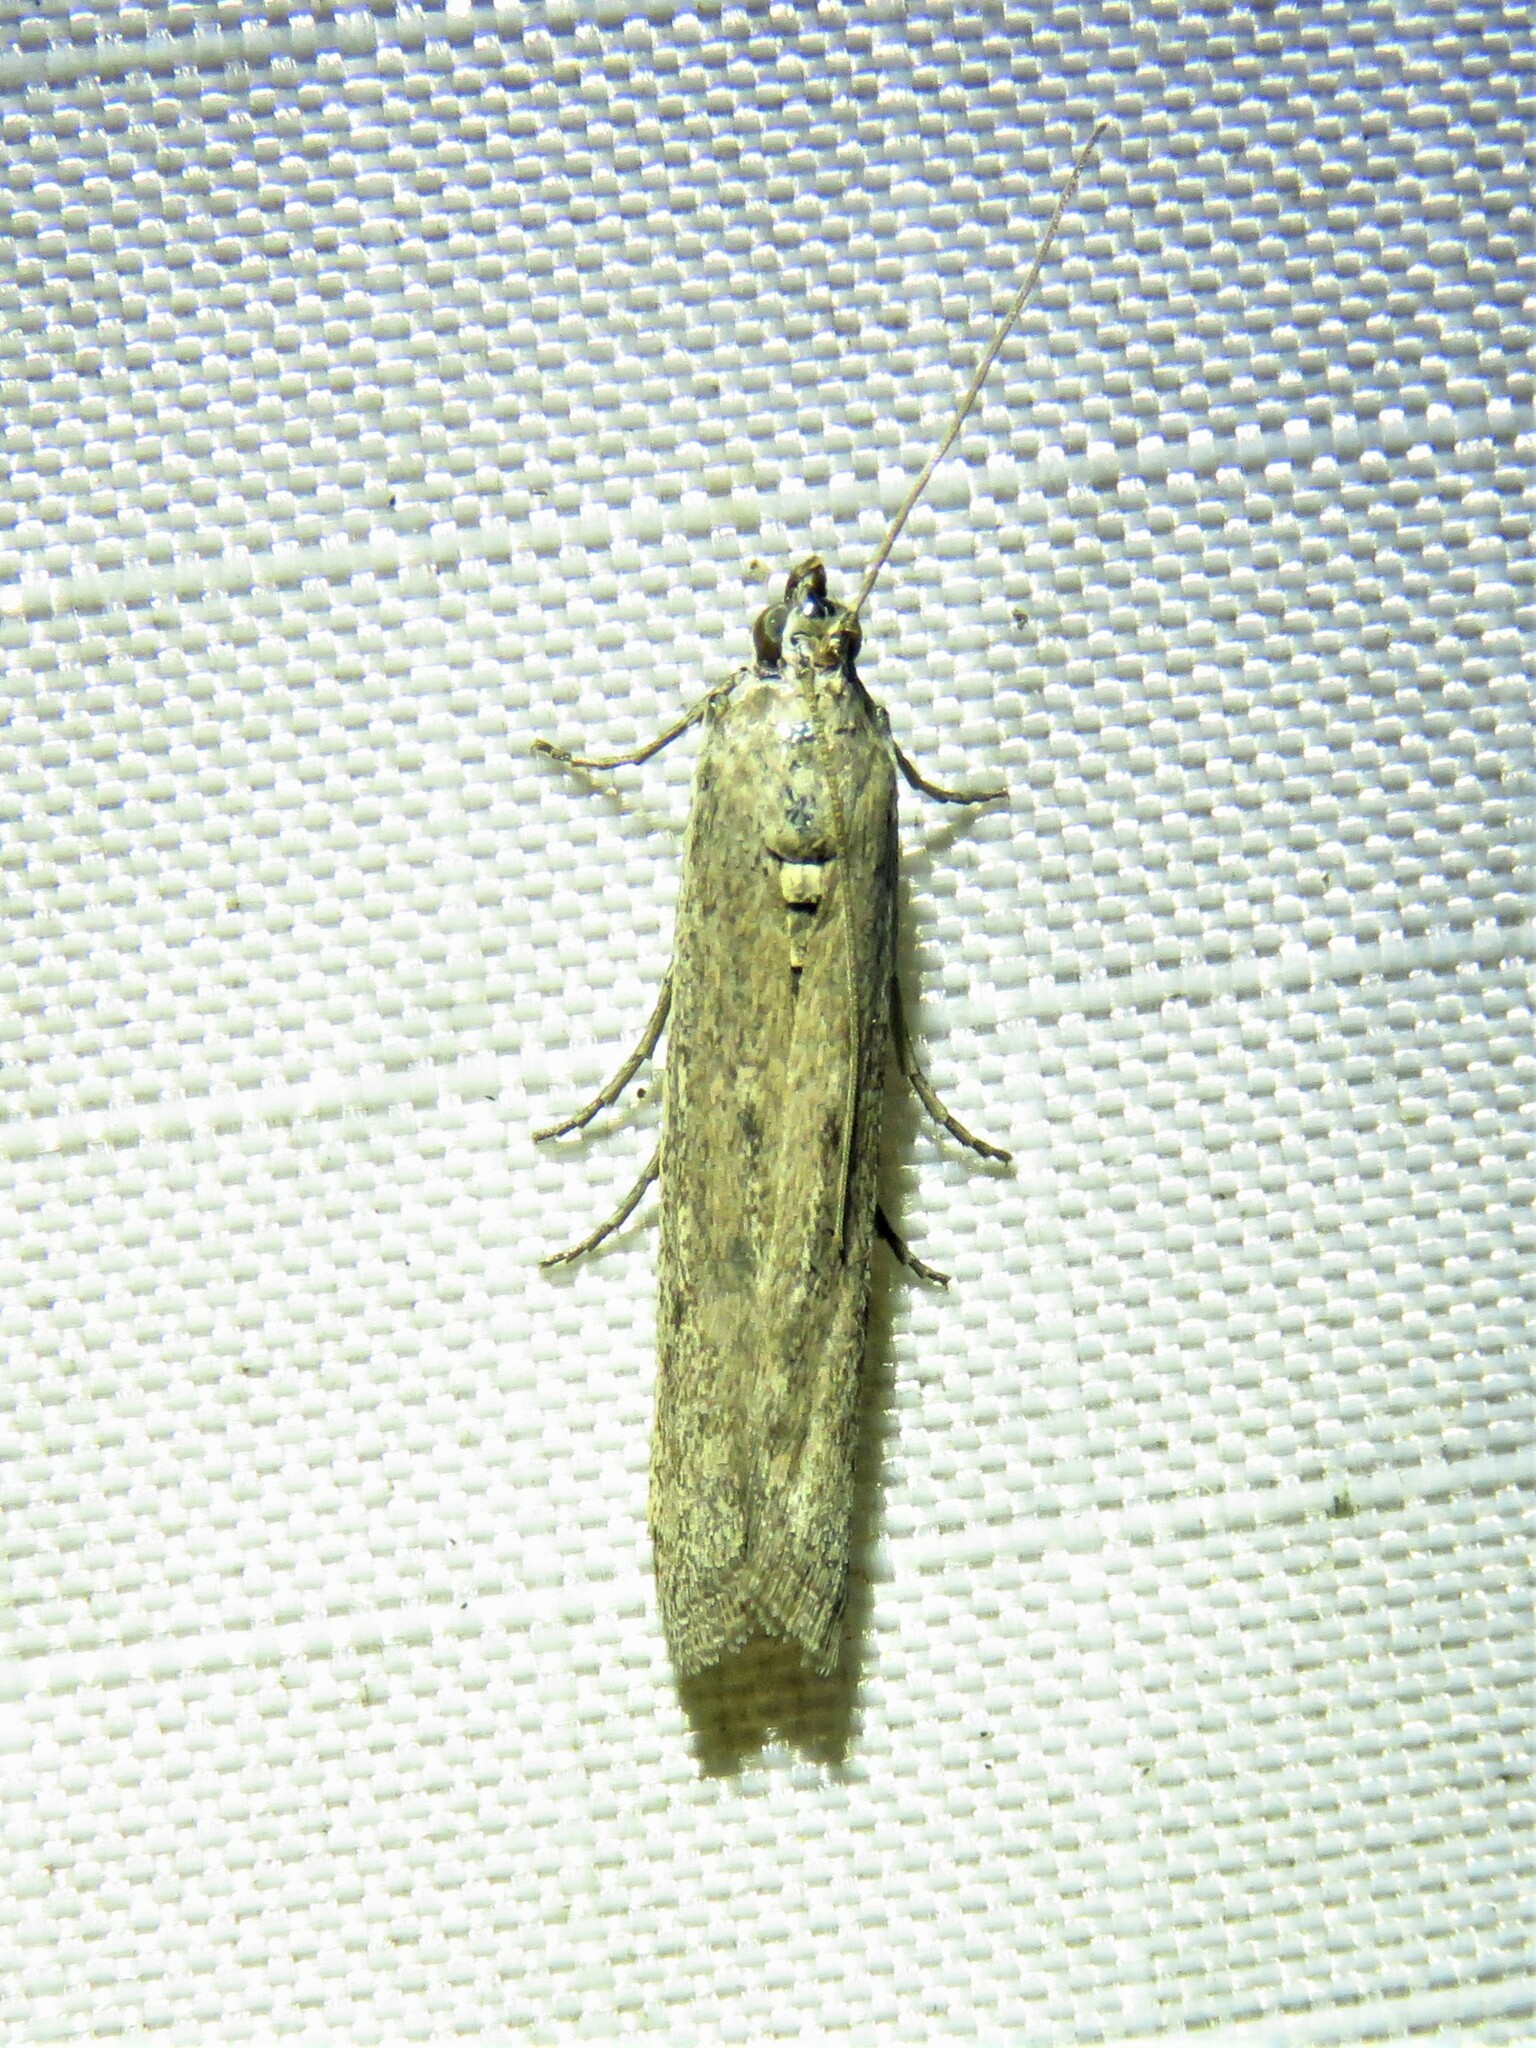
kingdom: Animalia
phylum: Arthropoda
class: Insecta
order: Lepidoptera
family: Pyralidae
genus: Homoeosoma
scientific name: Homoeosoma electella
